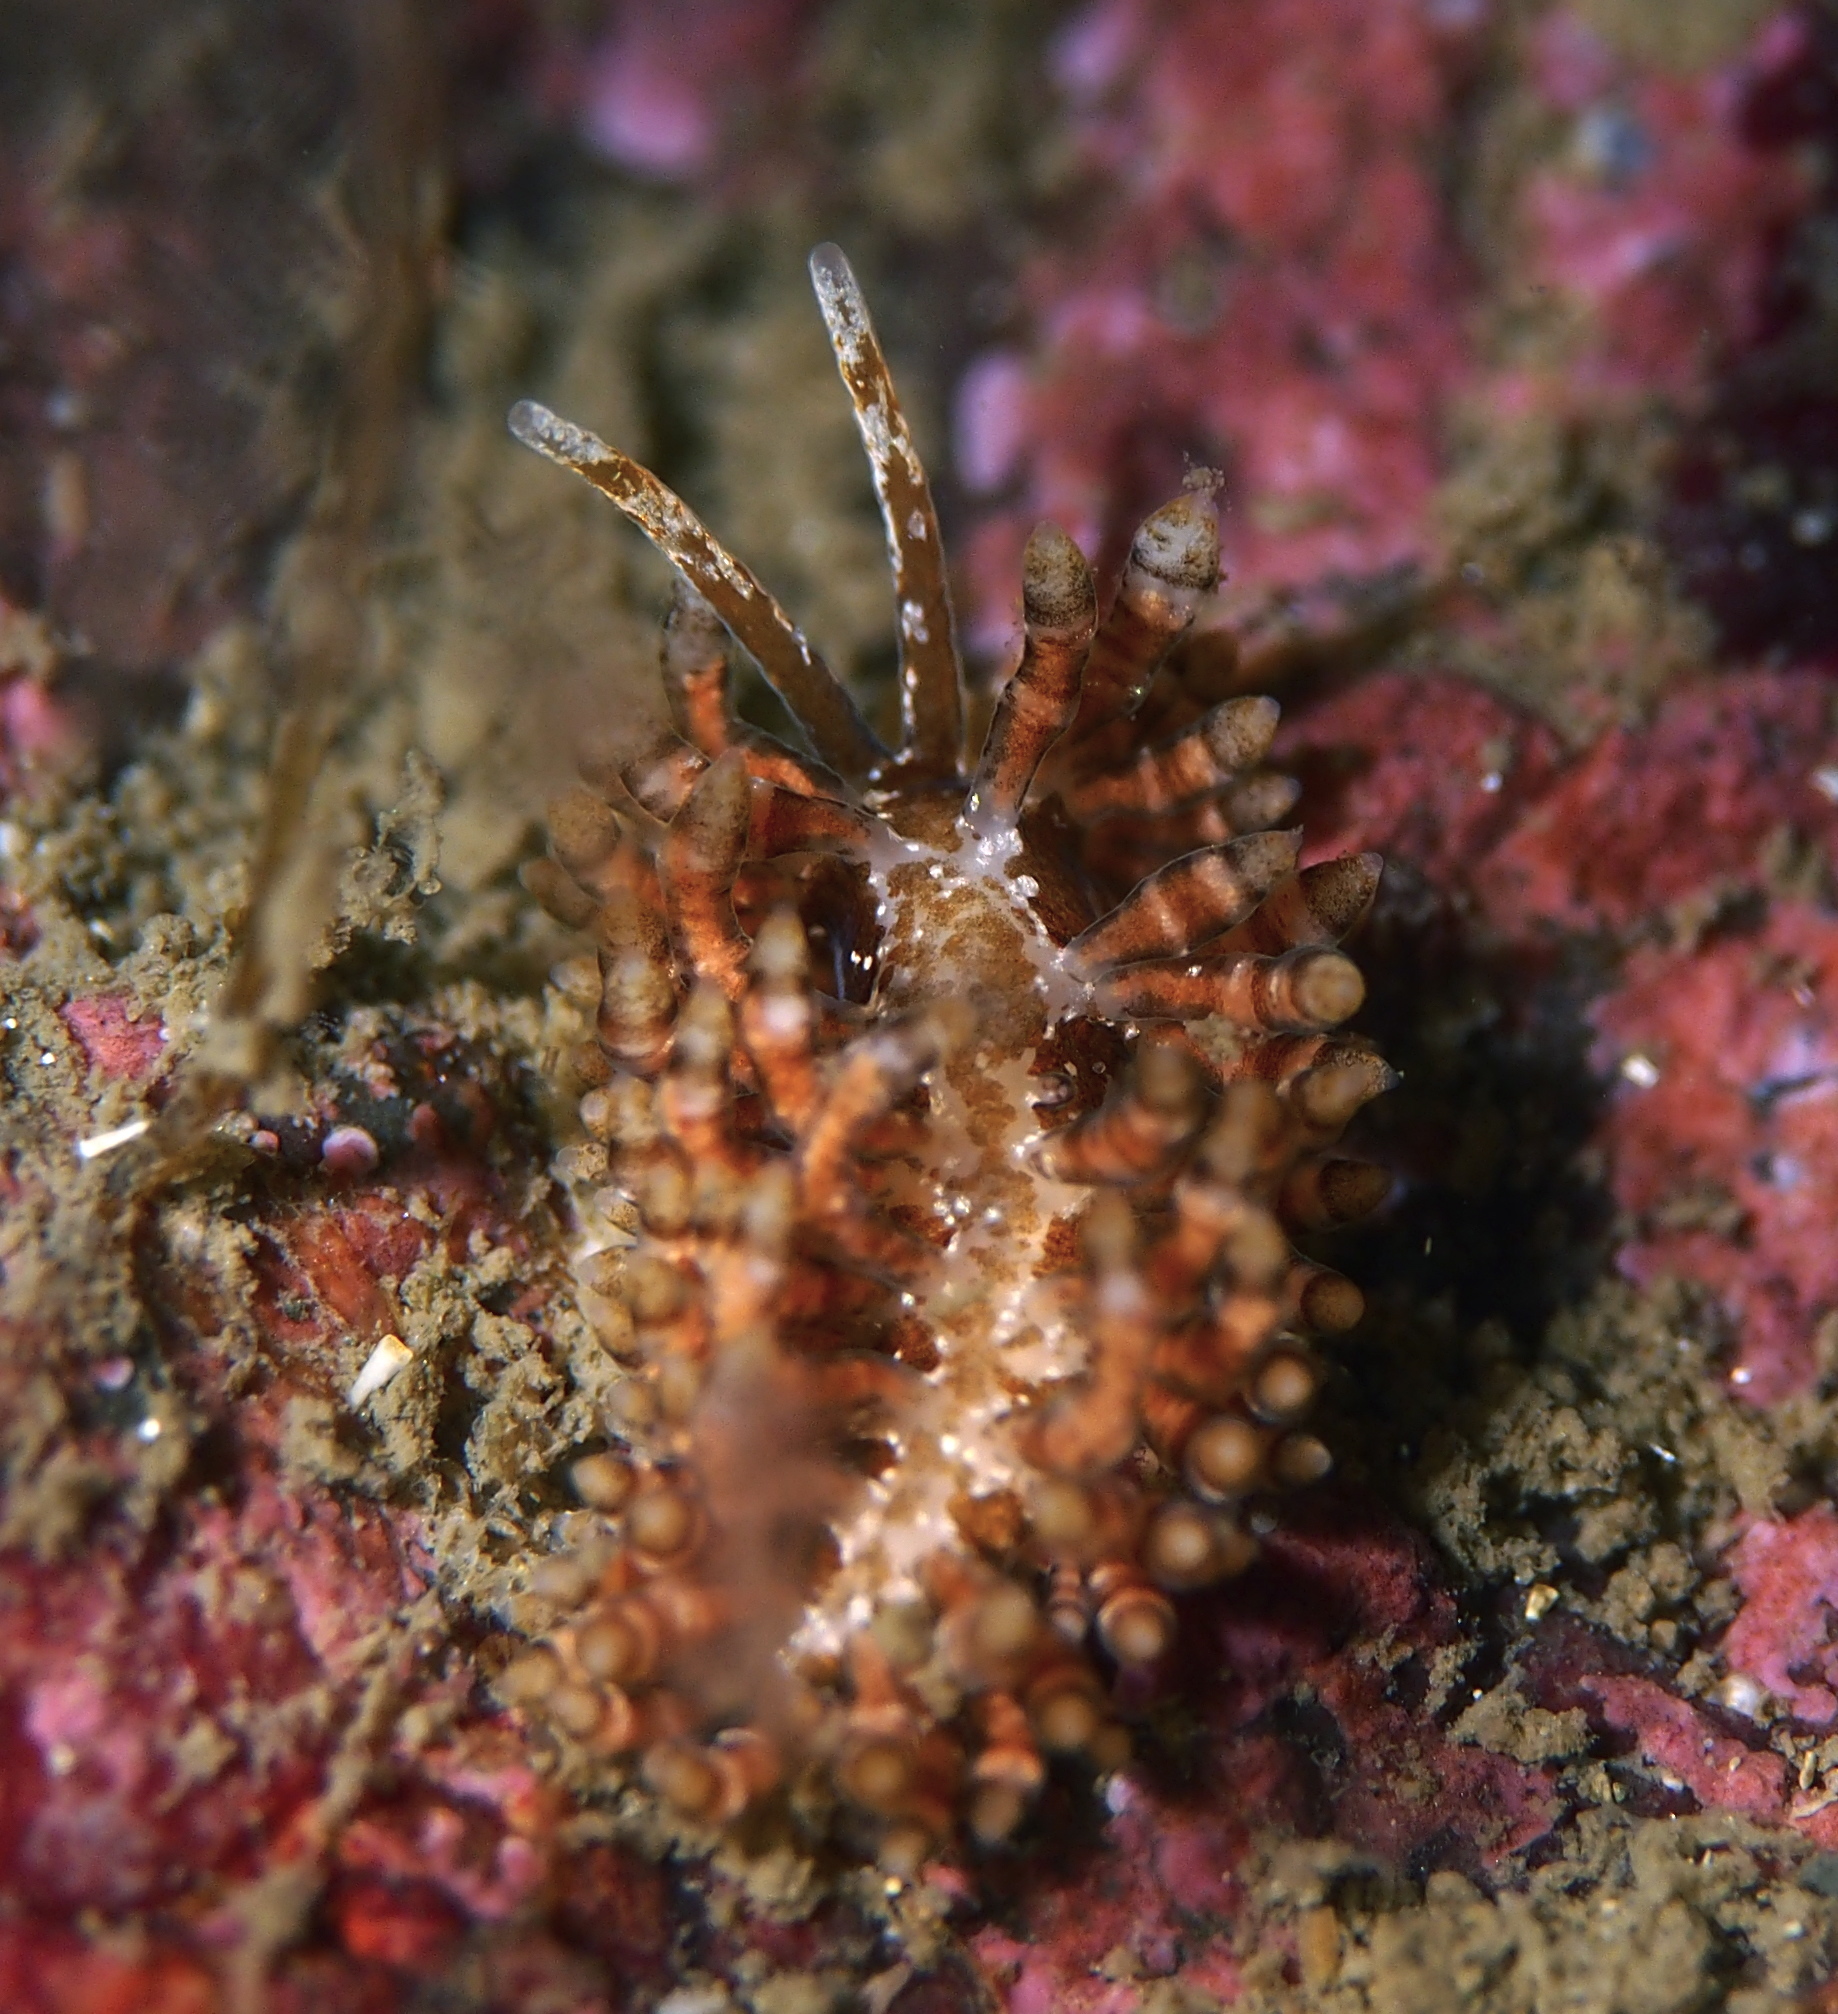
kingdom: Animalia
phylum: Mollusca
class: Gastropoda
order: Nudibranchia
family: Eubranchidae
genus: Eubranchus
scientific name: Eubranchus vittatus
